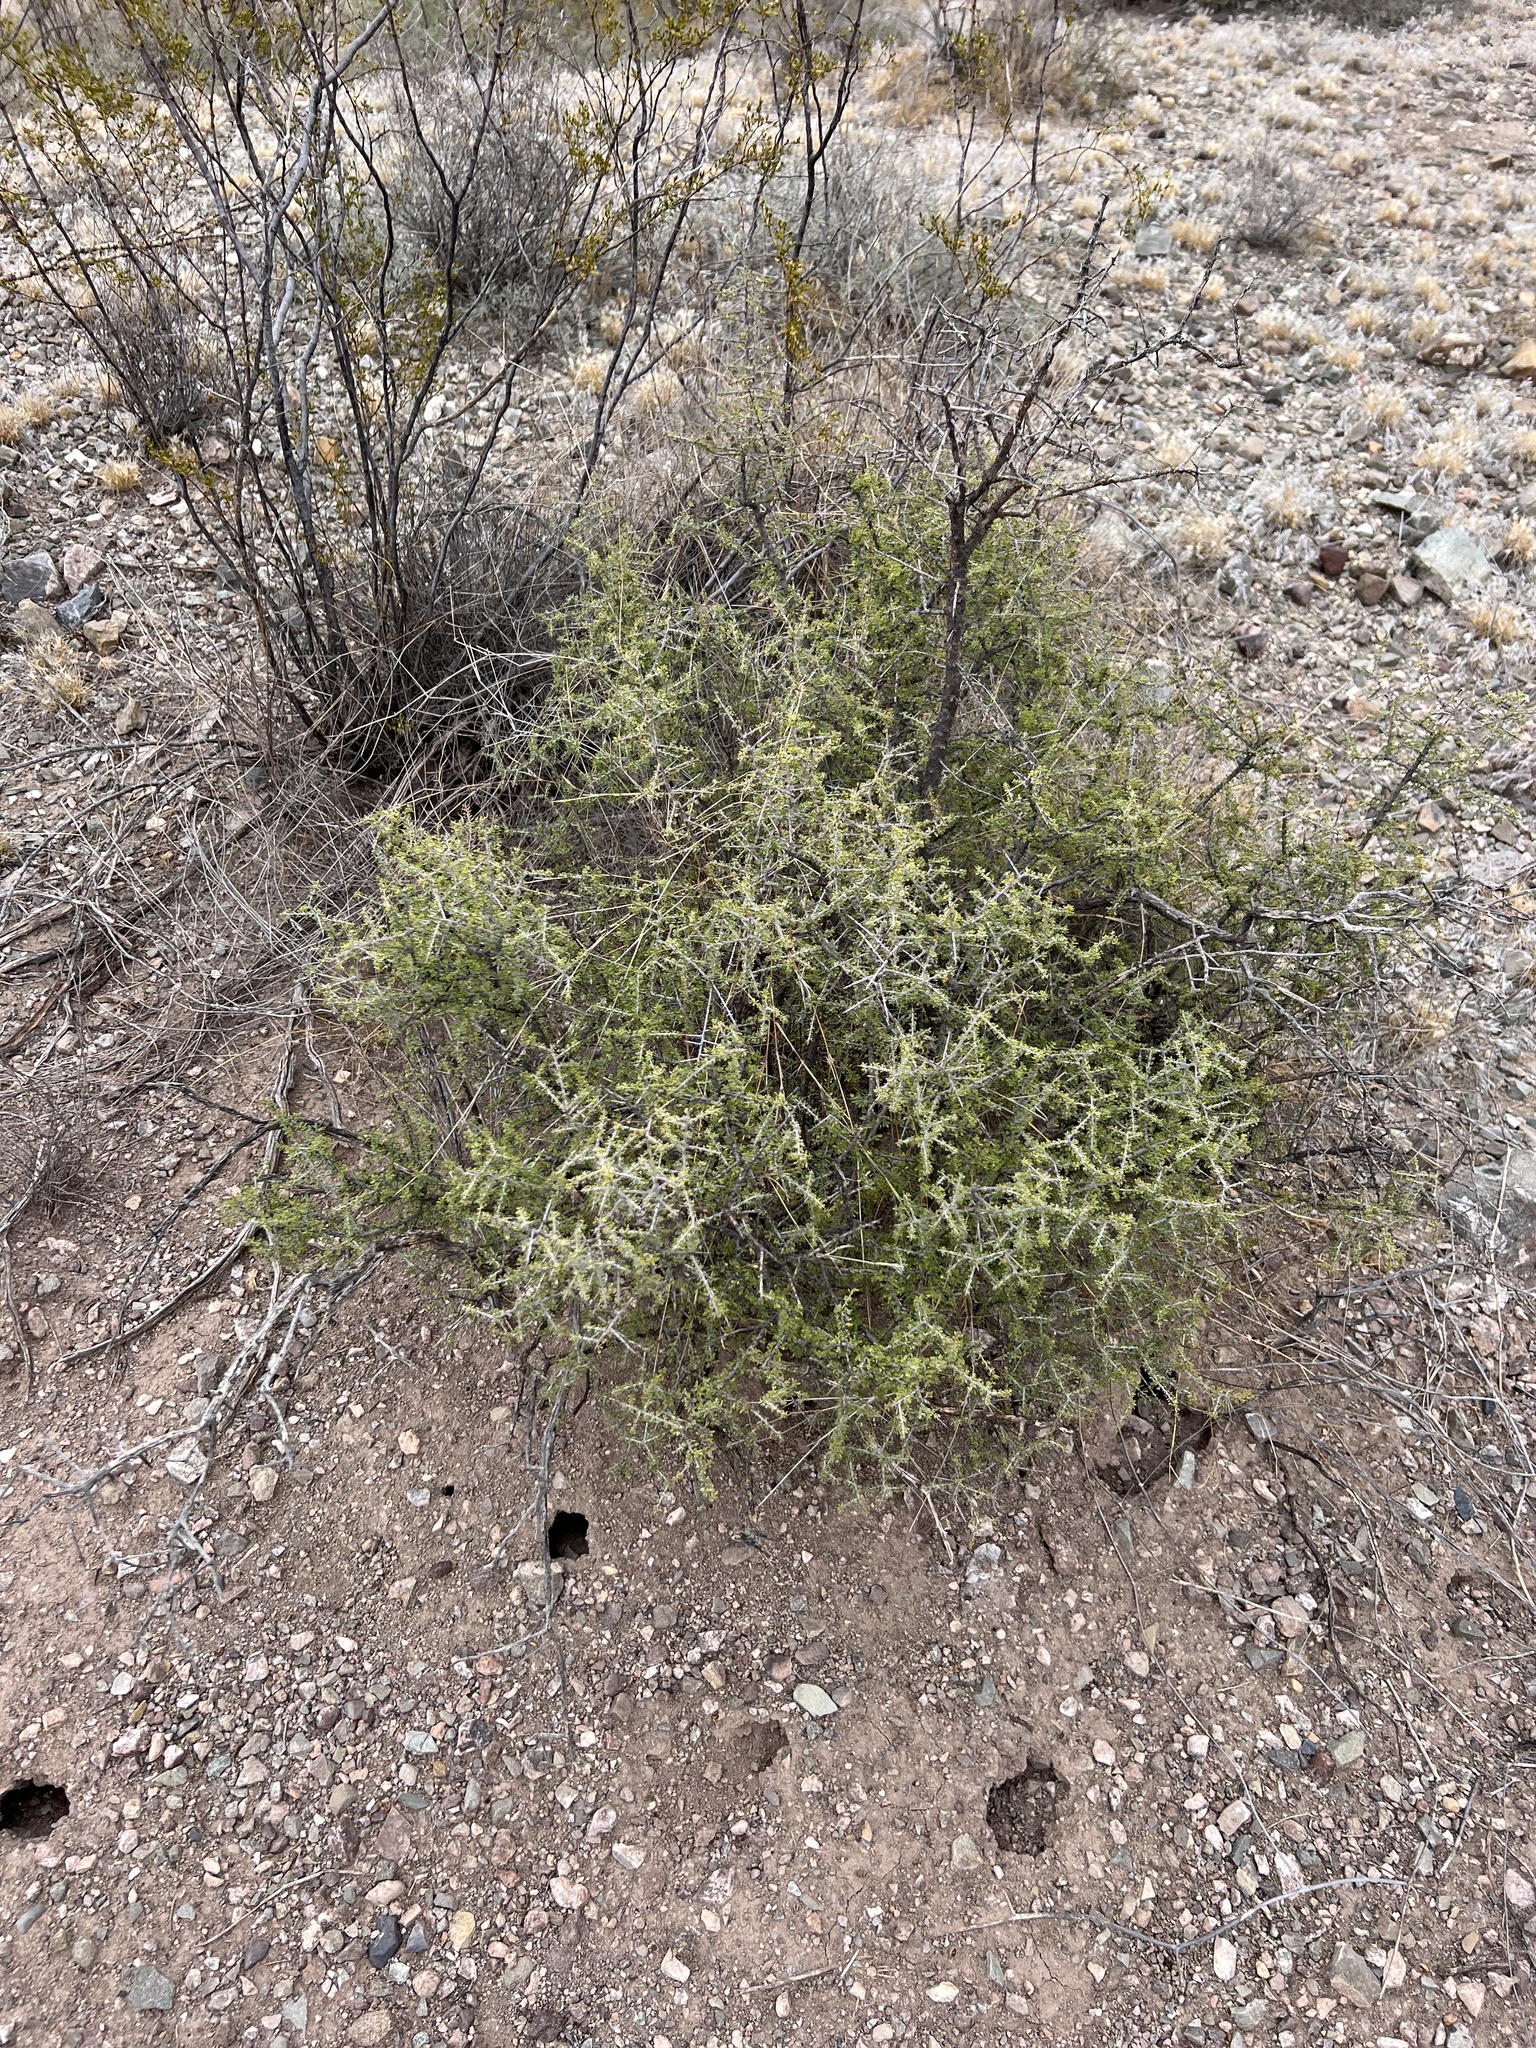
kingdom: Plantae
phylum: Tracheophyta
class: Magnoliopsida
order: Rosales
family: Rhamnaceae
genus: Condalia
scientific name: Condalia warnockii
